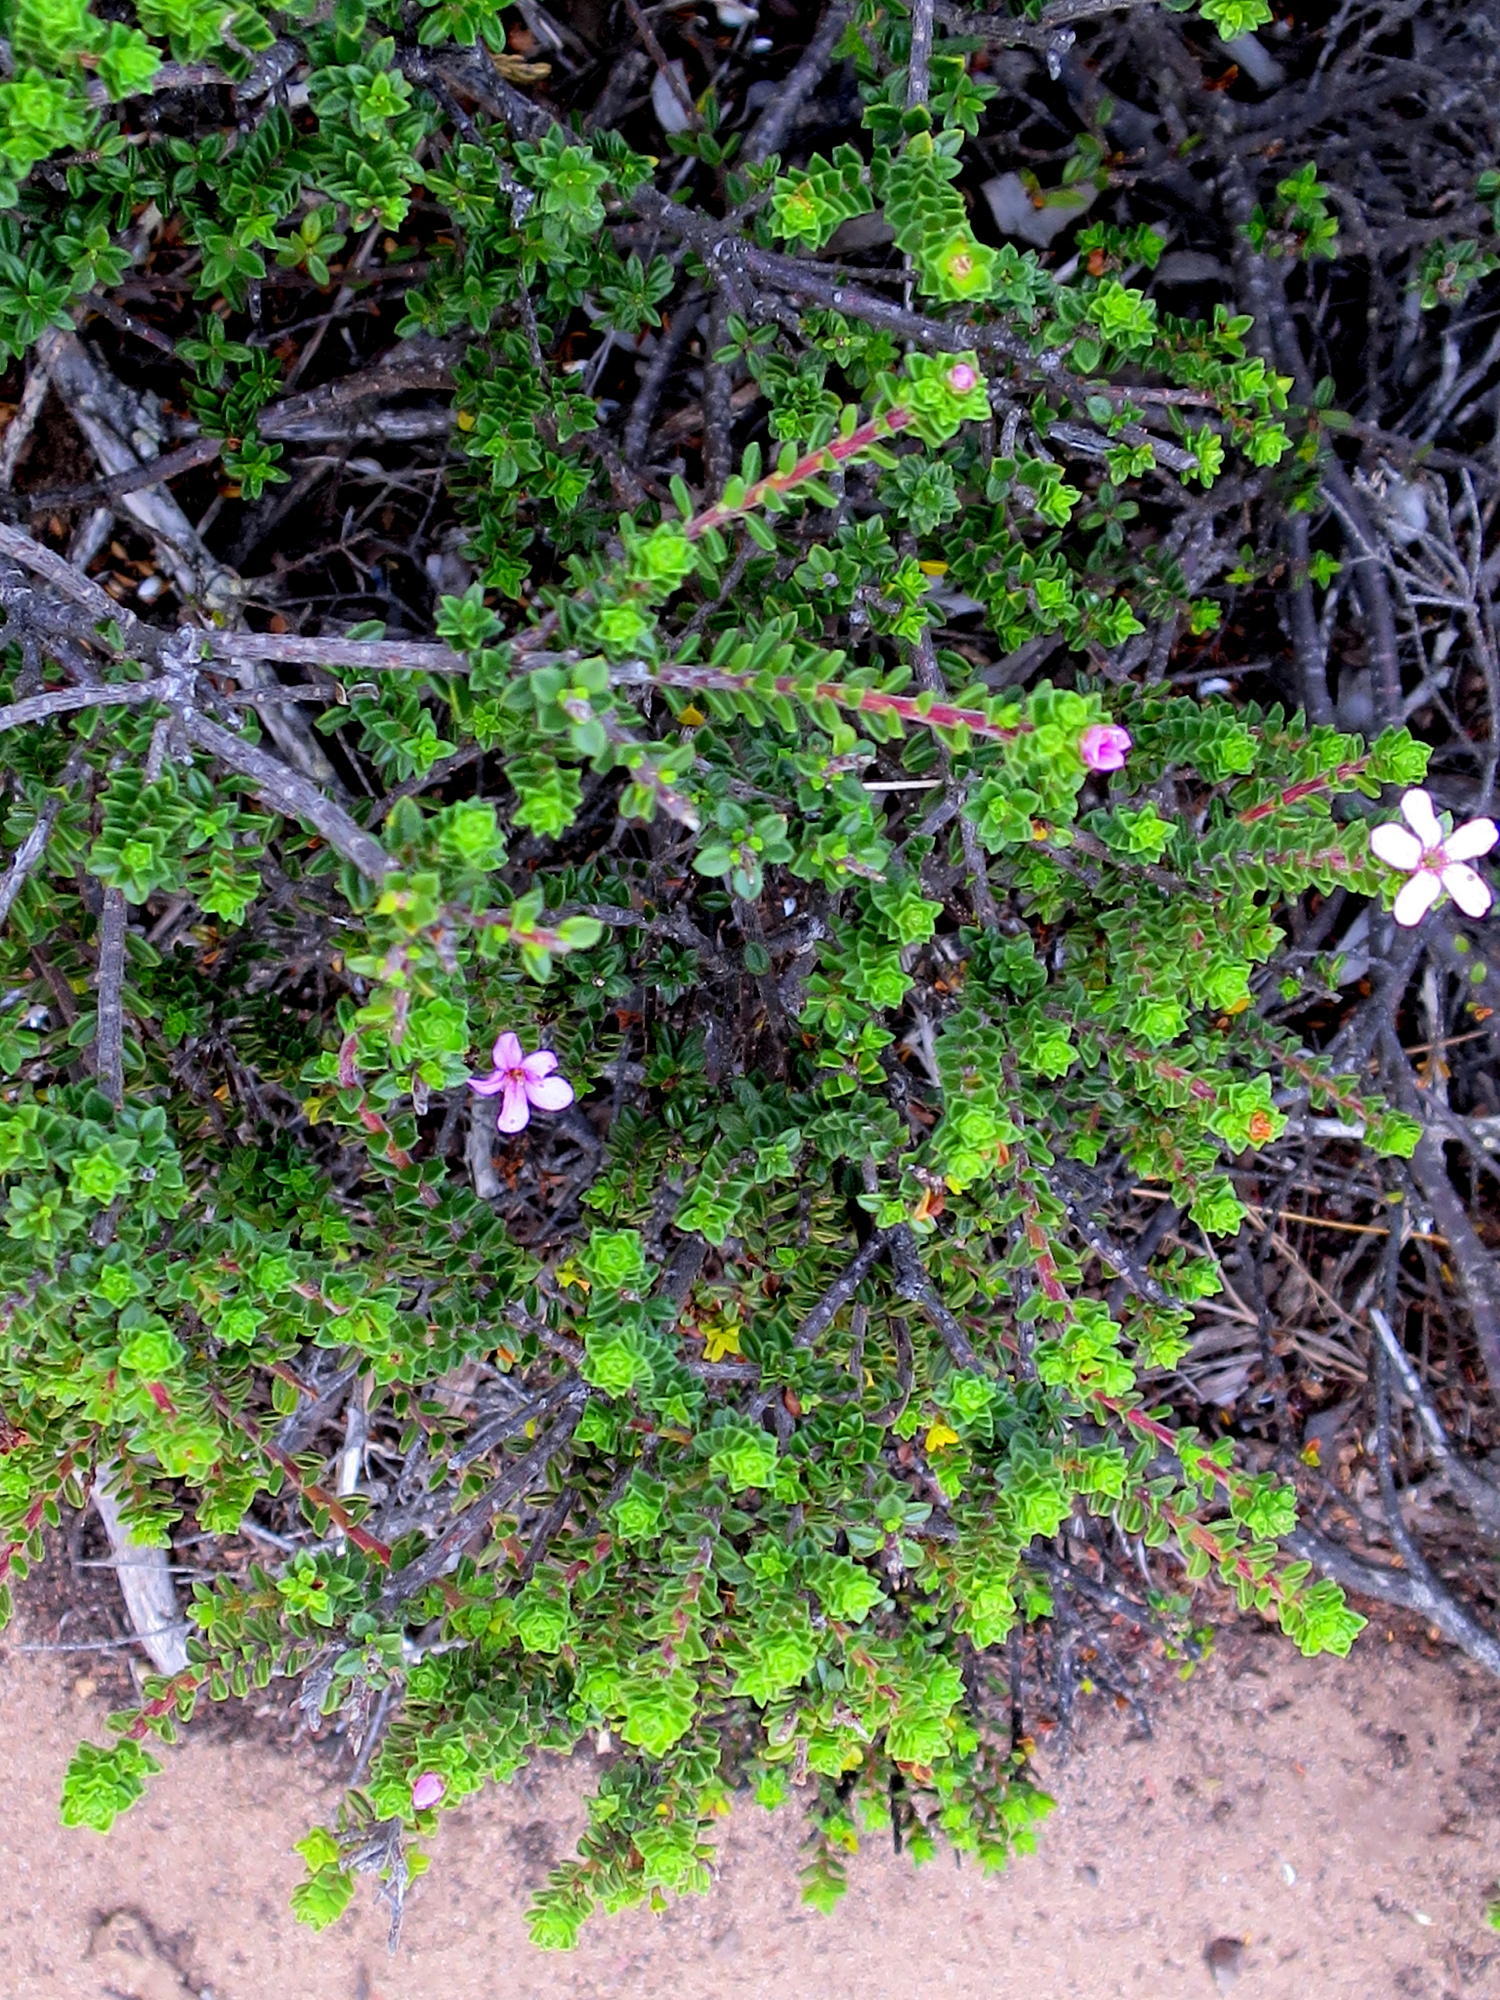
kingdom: Plantae
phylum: Tracheophyta
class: Magnoliopsida
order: Sapindales
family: Rutaceae
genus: Acmadenia
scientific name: Acmadenia heterophylla
